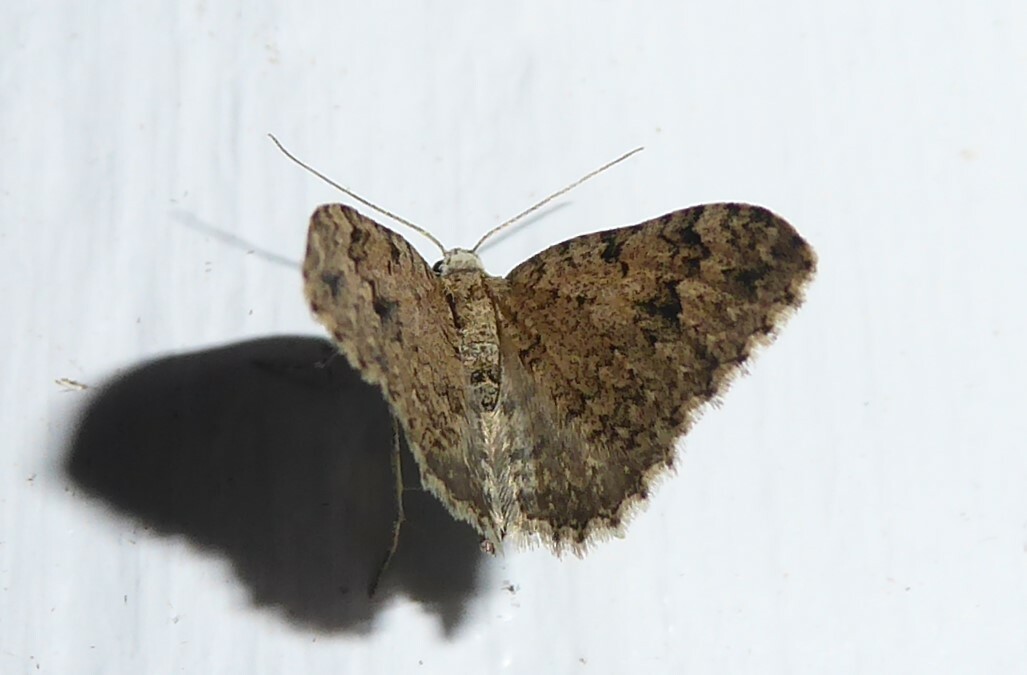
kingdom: Animalia
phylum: Arthropoda
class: Insecta
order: Lepidoptera
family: Geometridae
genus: Helastia
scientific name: Helastia cinerearia
